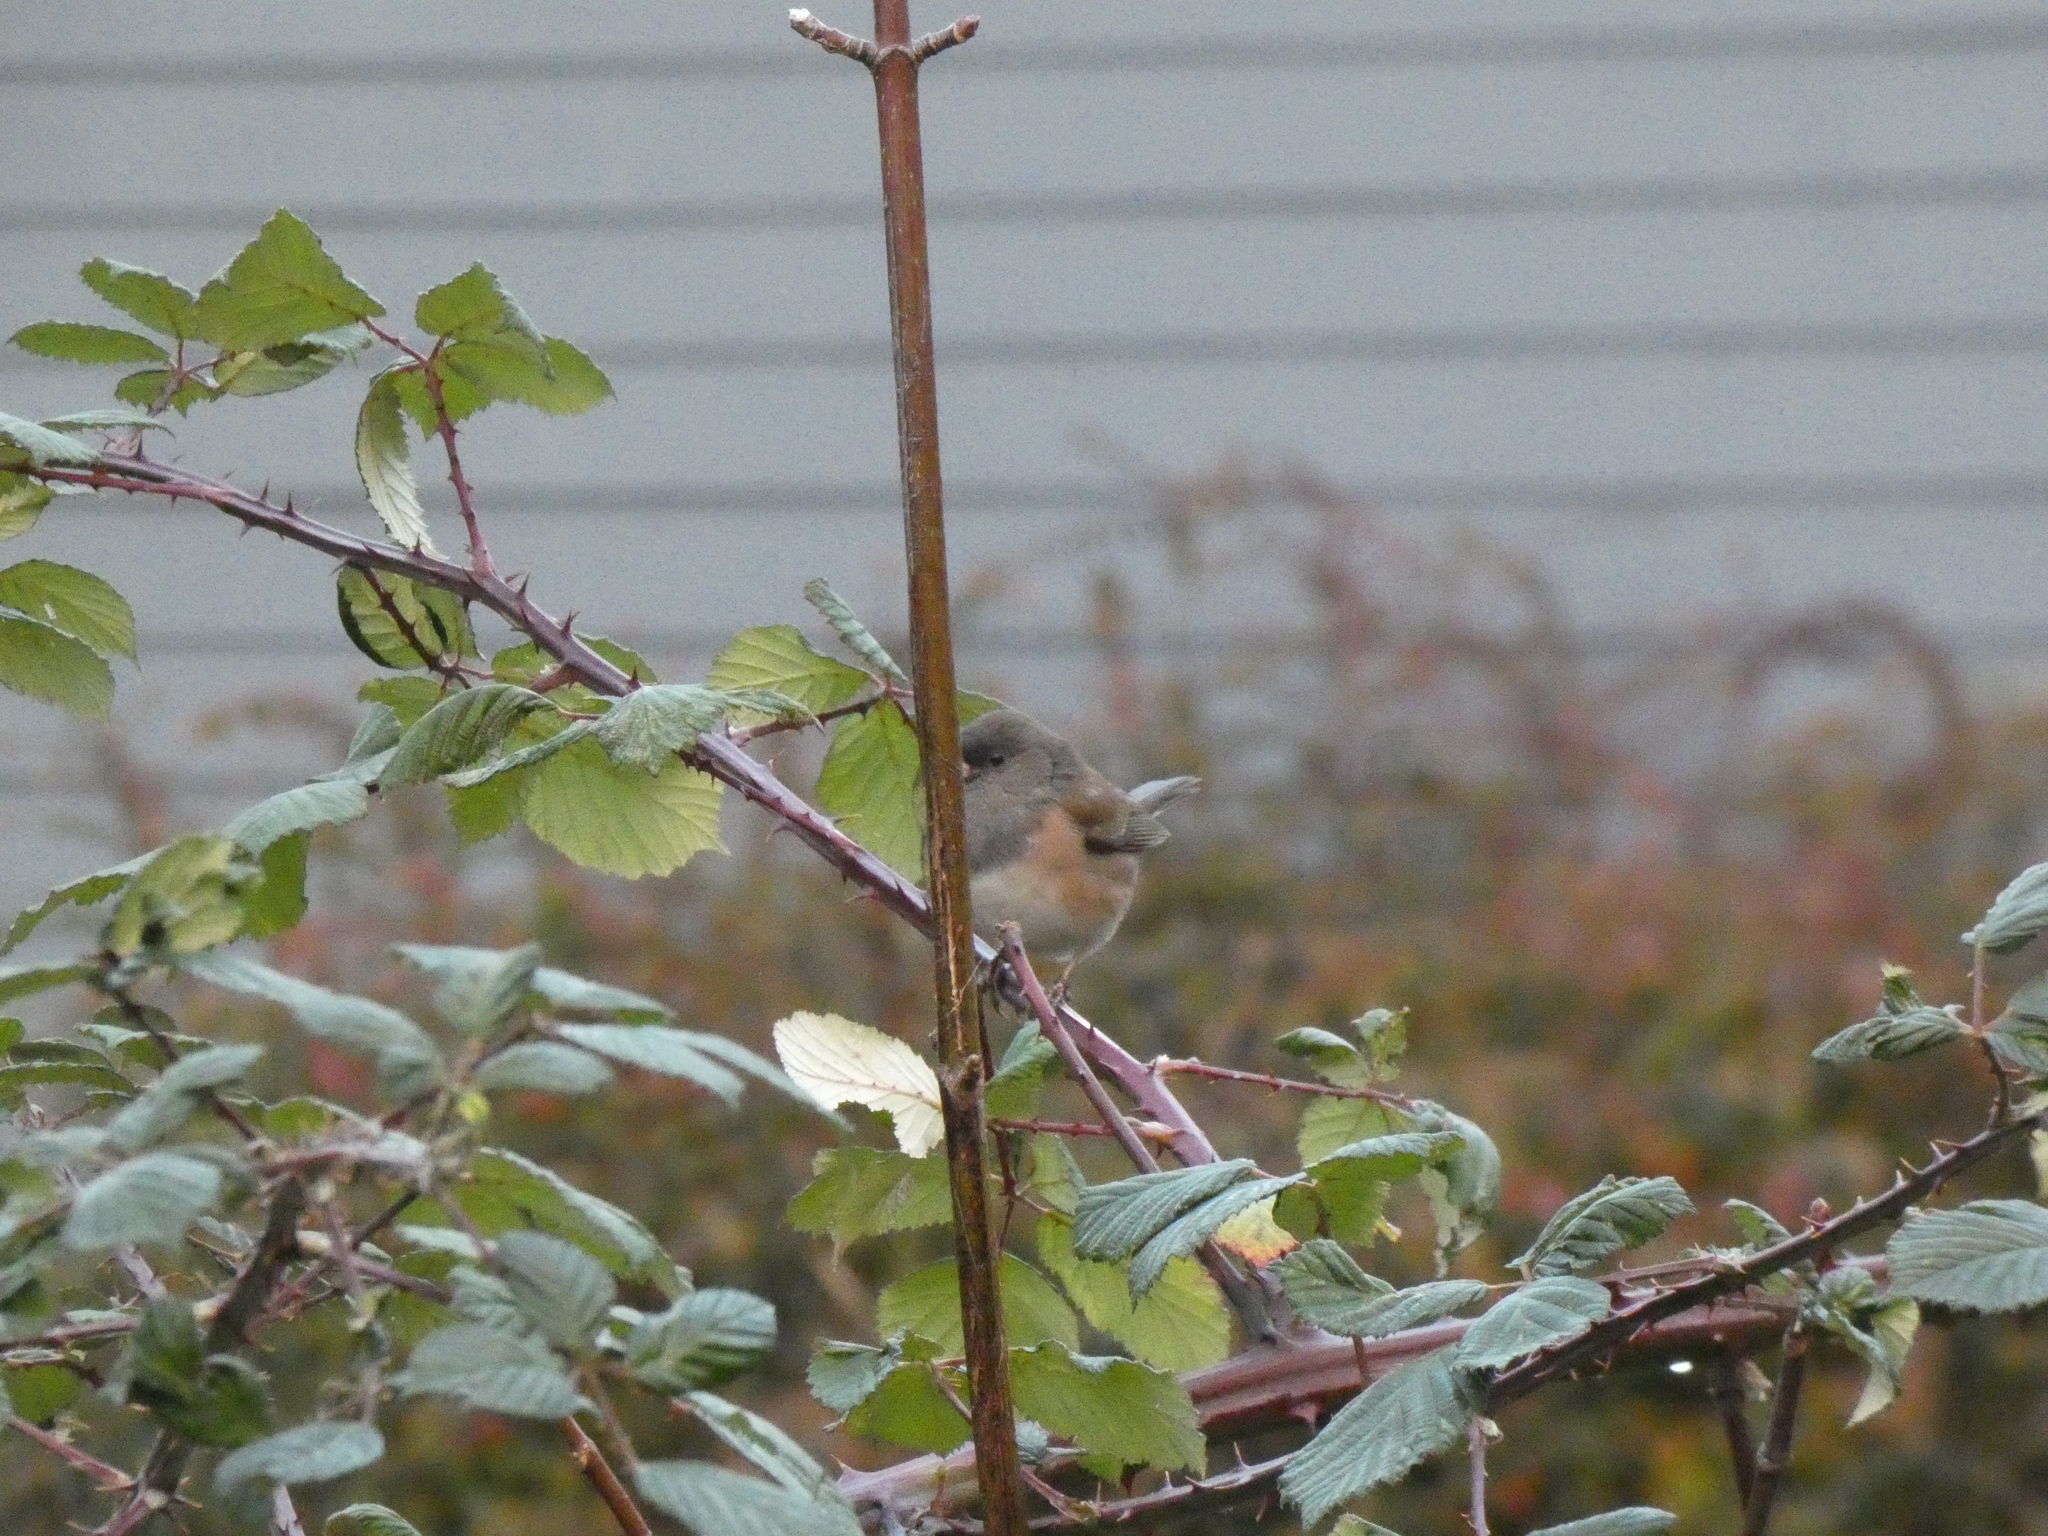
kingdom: Animalia
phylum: Chordata
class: Aves
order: Passeriformes
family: Passerellidae
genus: Junco
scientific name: Junco hyemalis
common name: Dark-eyed junco
